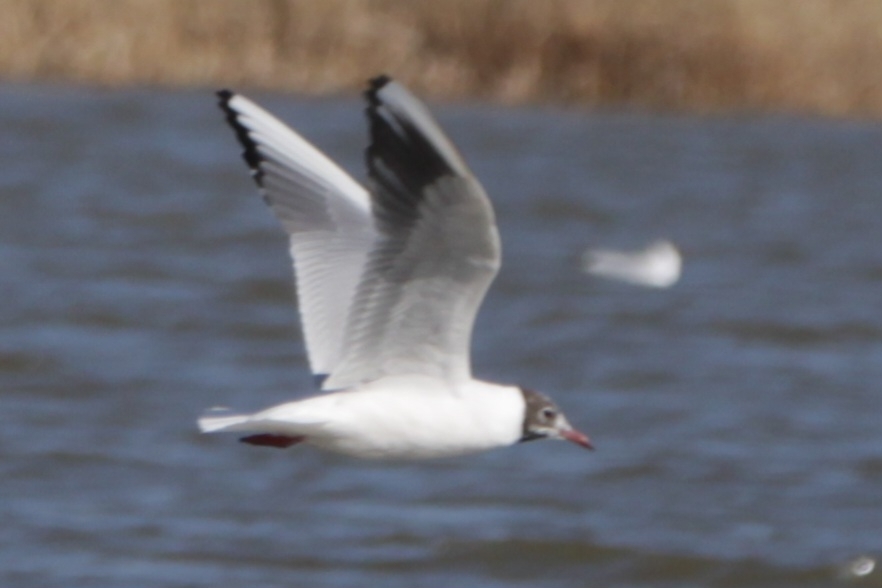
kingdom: Animalia
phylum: Chordata
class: Aves
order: Charadriiformes
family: Laridae
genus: Chroicocephalus
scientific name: Chroicocephalus ridibundus
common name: Black-headed gull
